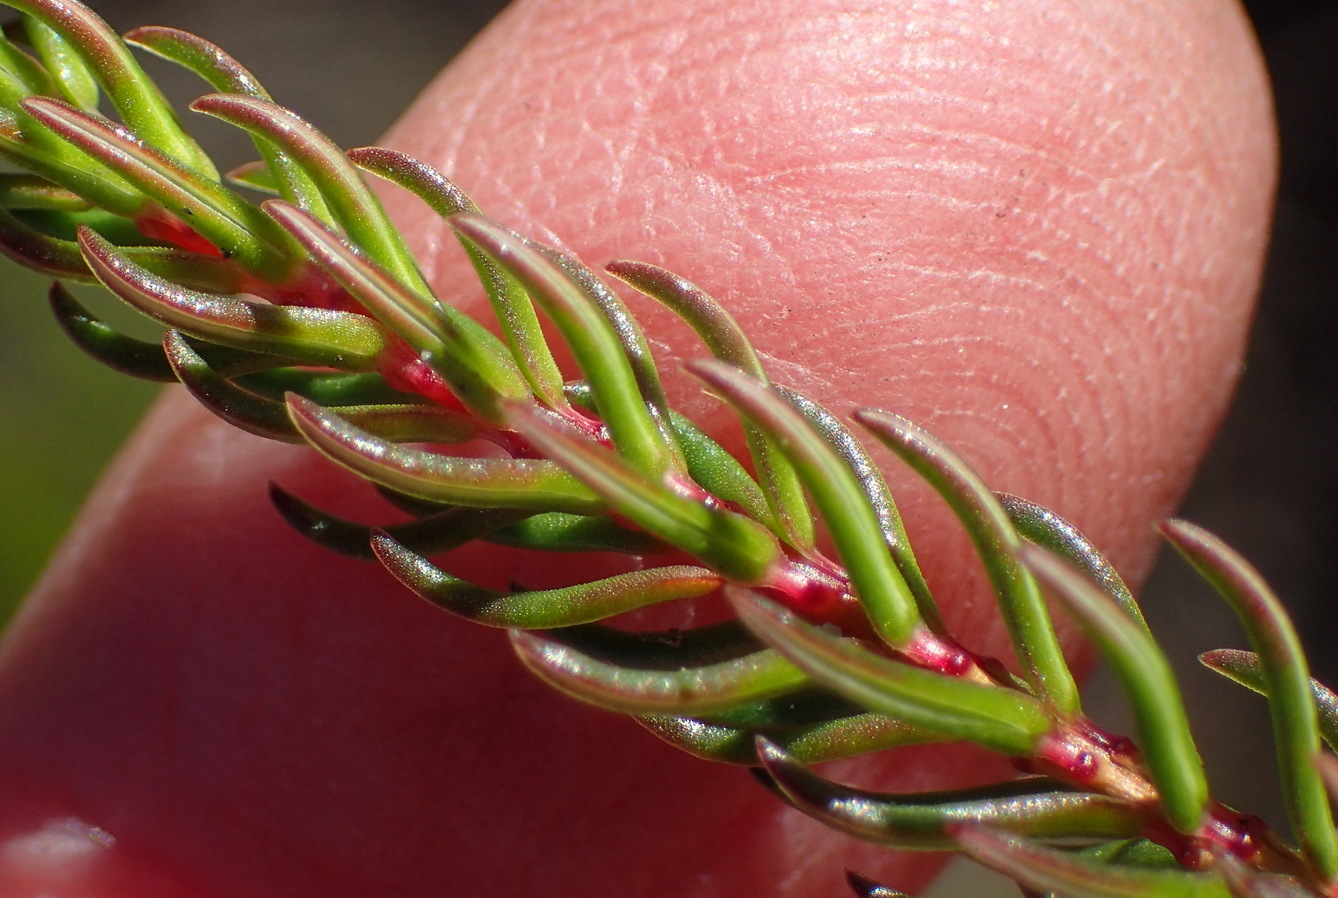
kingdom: Plantae
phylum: Tracheophyta
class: Magnoliopsida
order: Ericales
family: Ericaceae
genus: Erica
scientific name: Erica cubica
